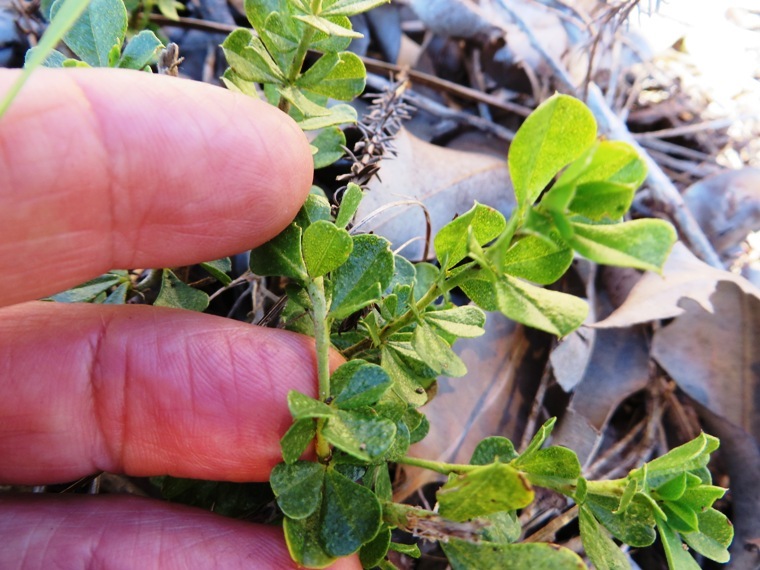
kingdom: Plantae
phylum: Tracheophyta
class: Magnoliopsida
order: Fabales
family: Fabaceae
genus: Psoralea
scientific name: Psoralea bracteolata
